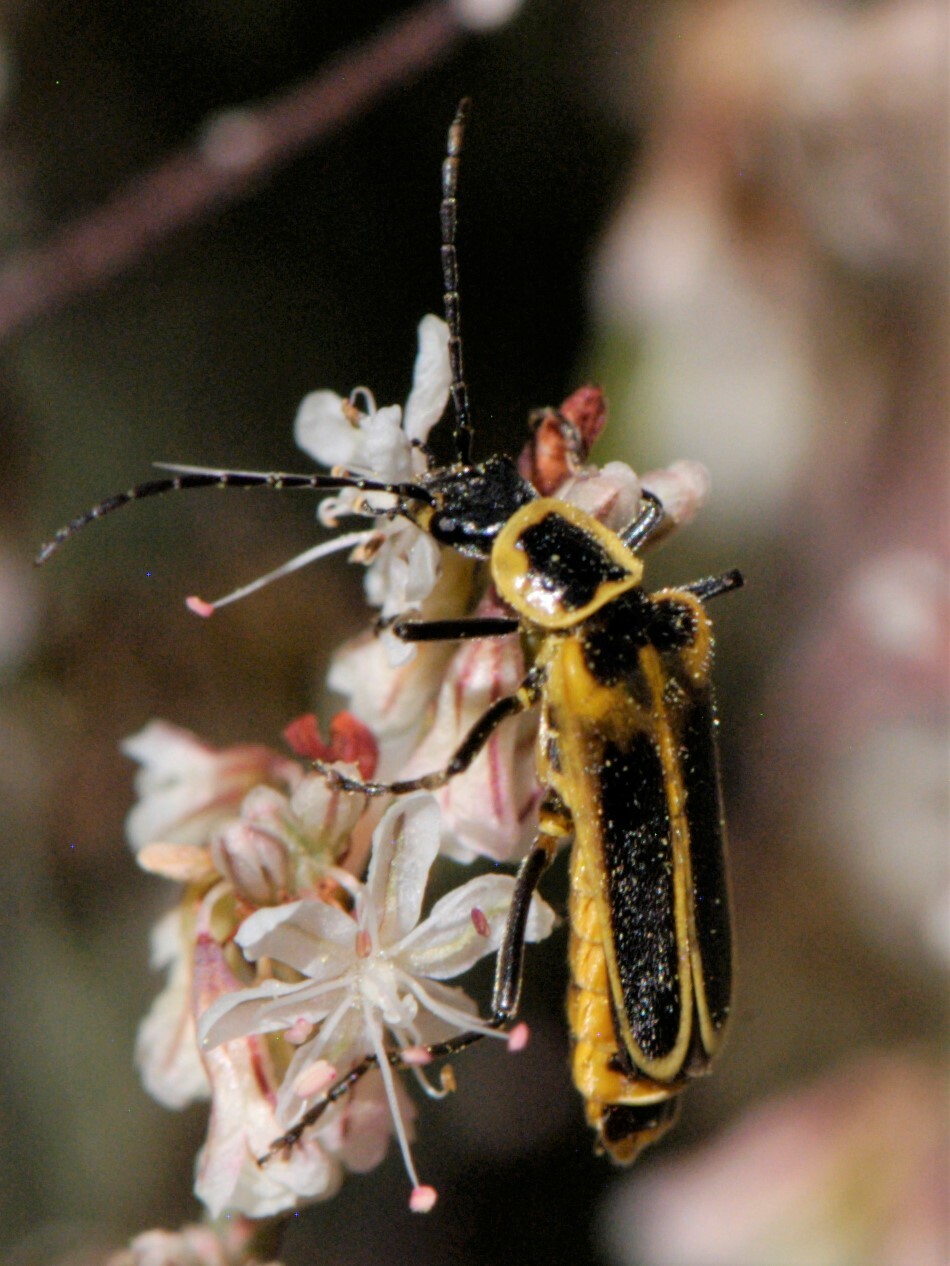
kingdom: Animalia
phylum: Arthropoda
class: Insecta
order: Coleoptera
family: Cantharidae
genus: Chauliognathus
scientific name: Chauliognathus lewisi
